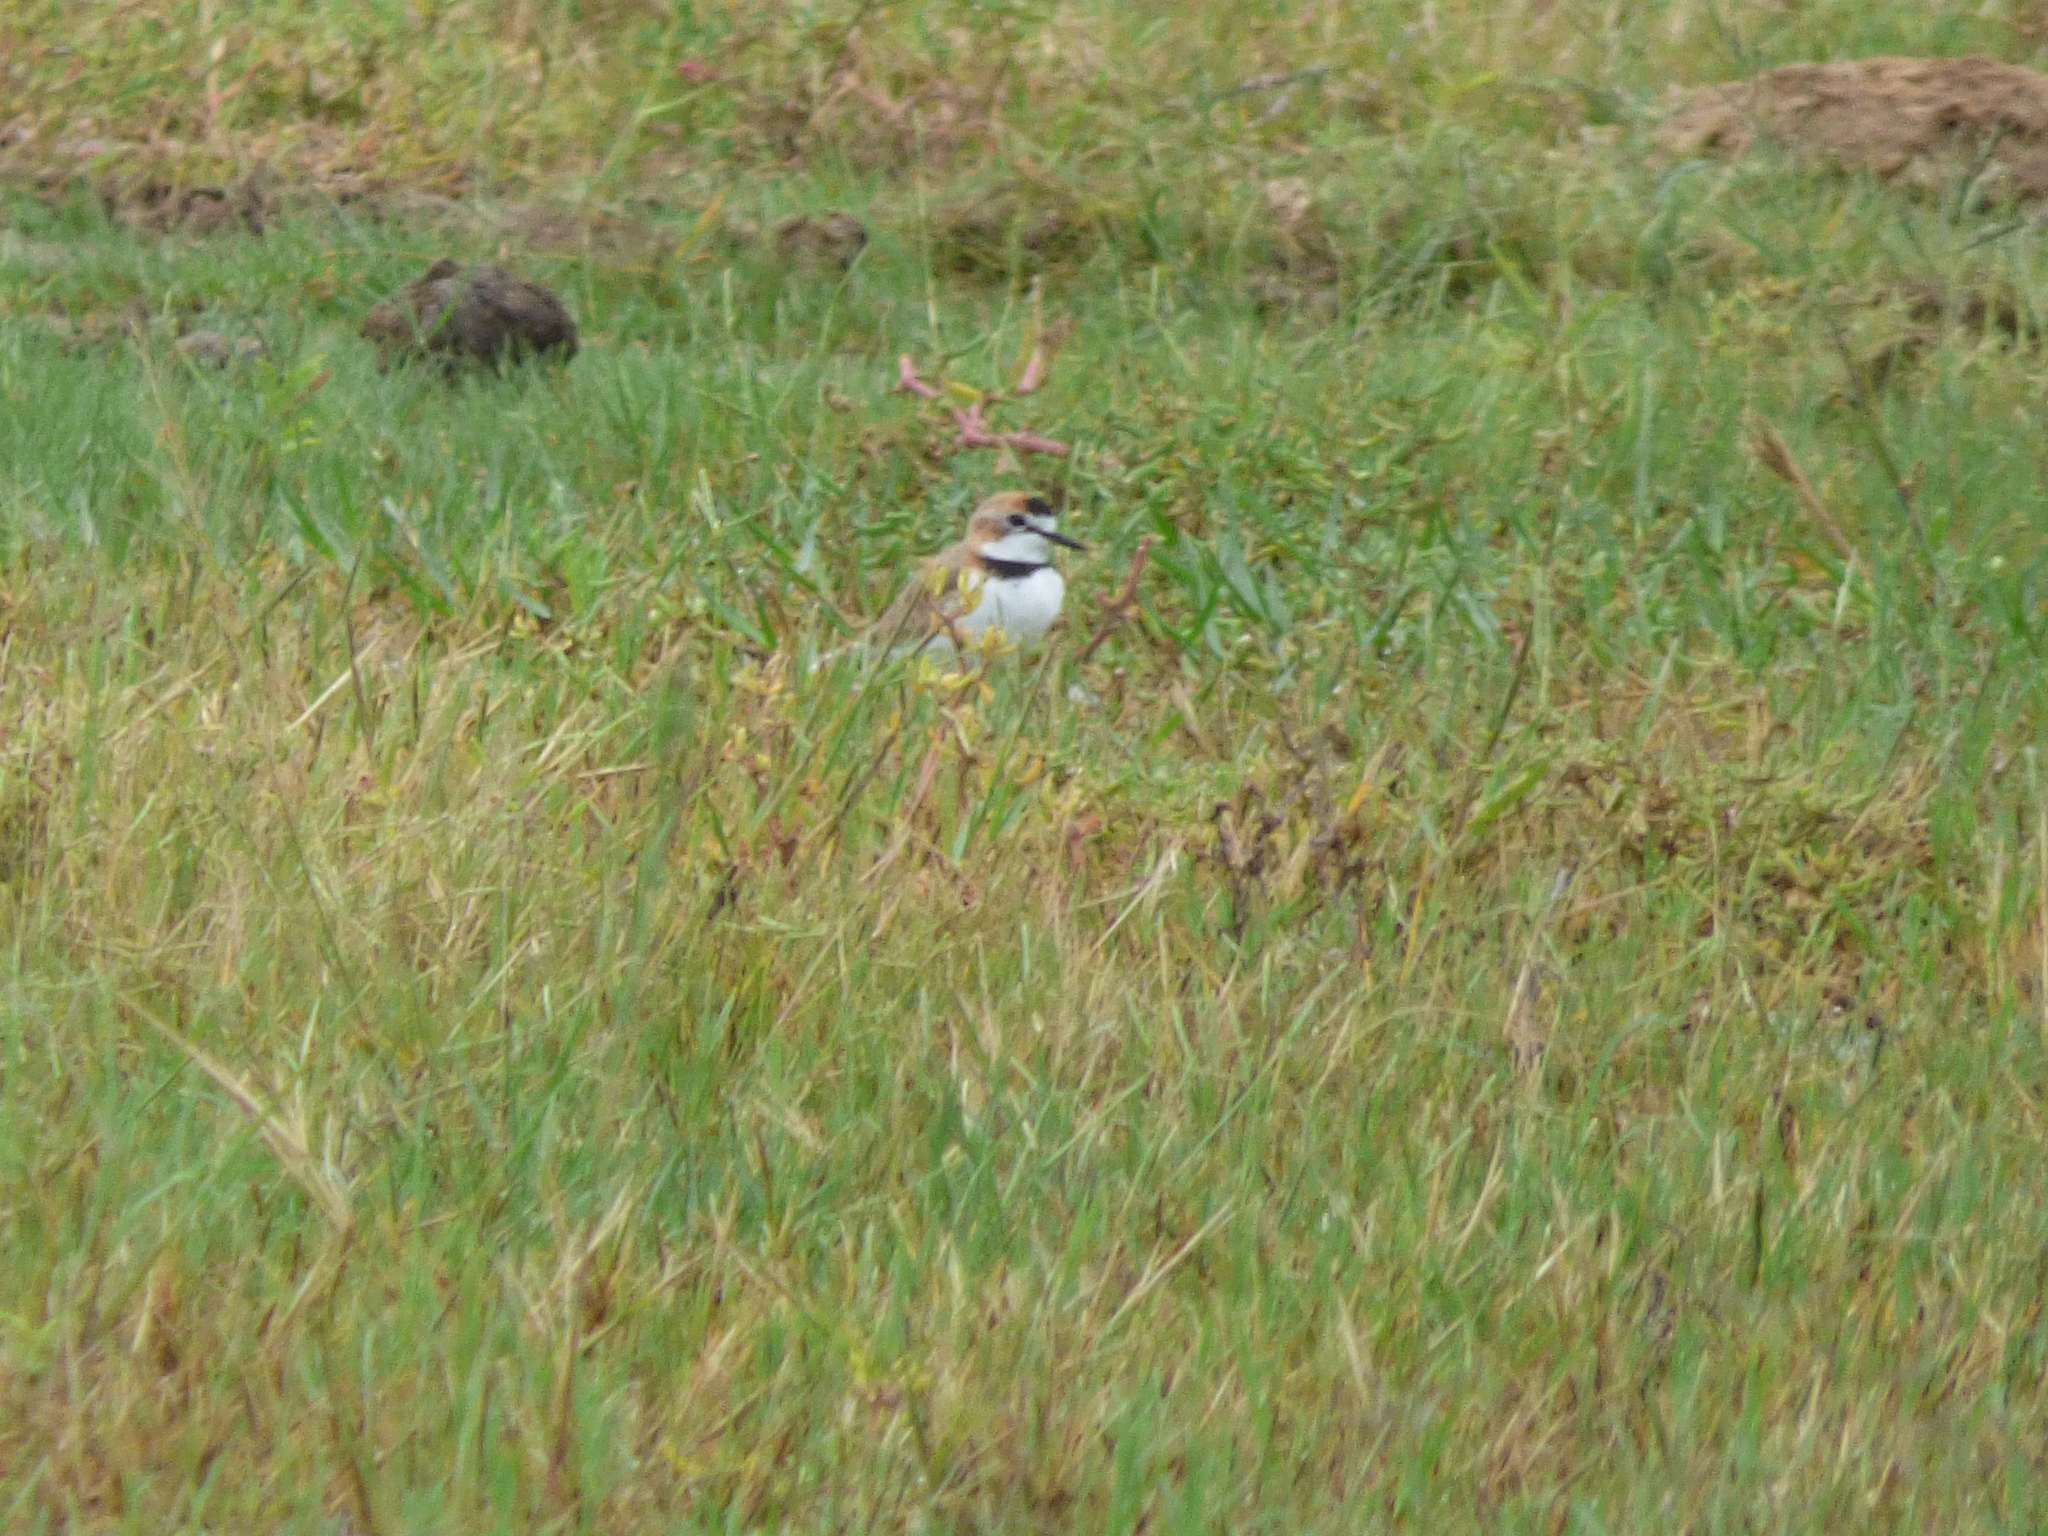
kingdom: Animalia
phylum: Chordata
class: Aves
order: Charadriiformes
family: Charadriidae
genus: Anarhynchus
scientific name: Anarhynchus
